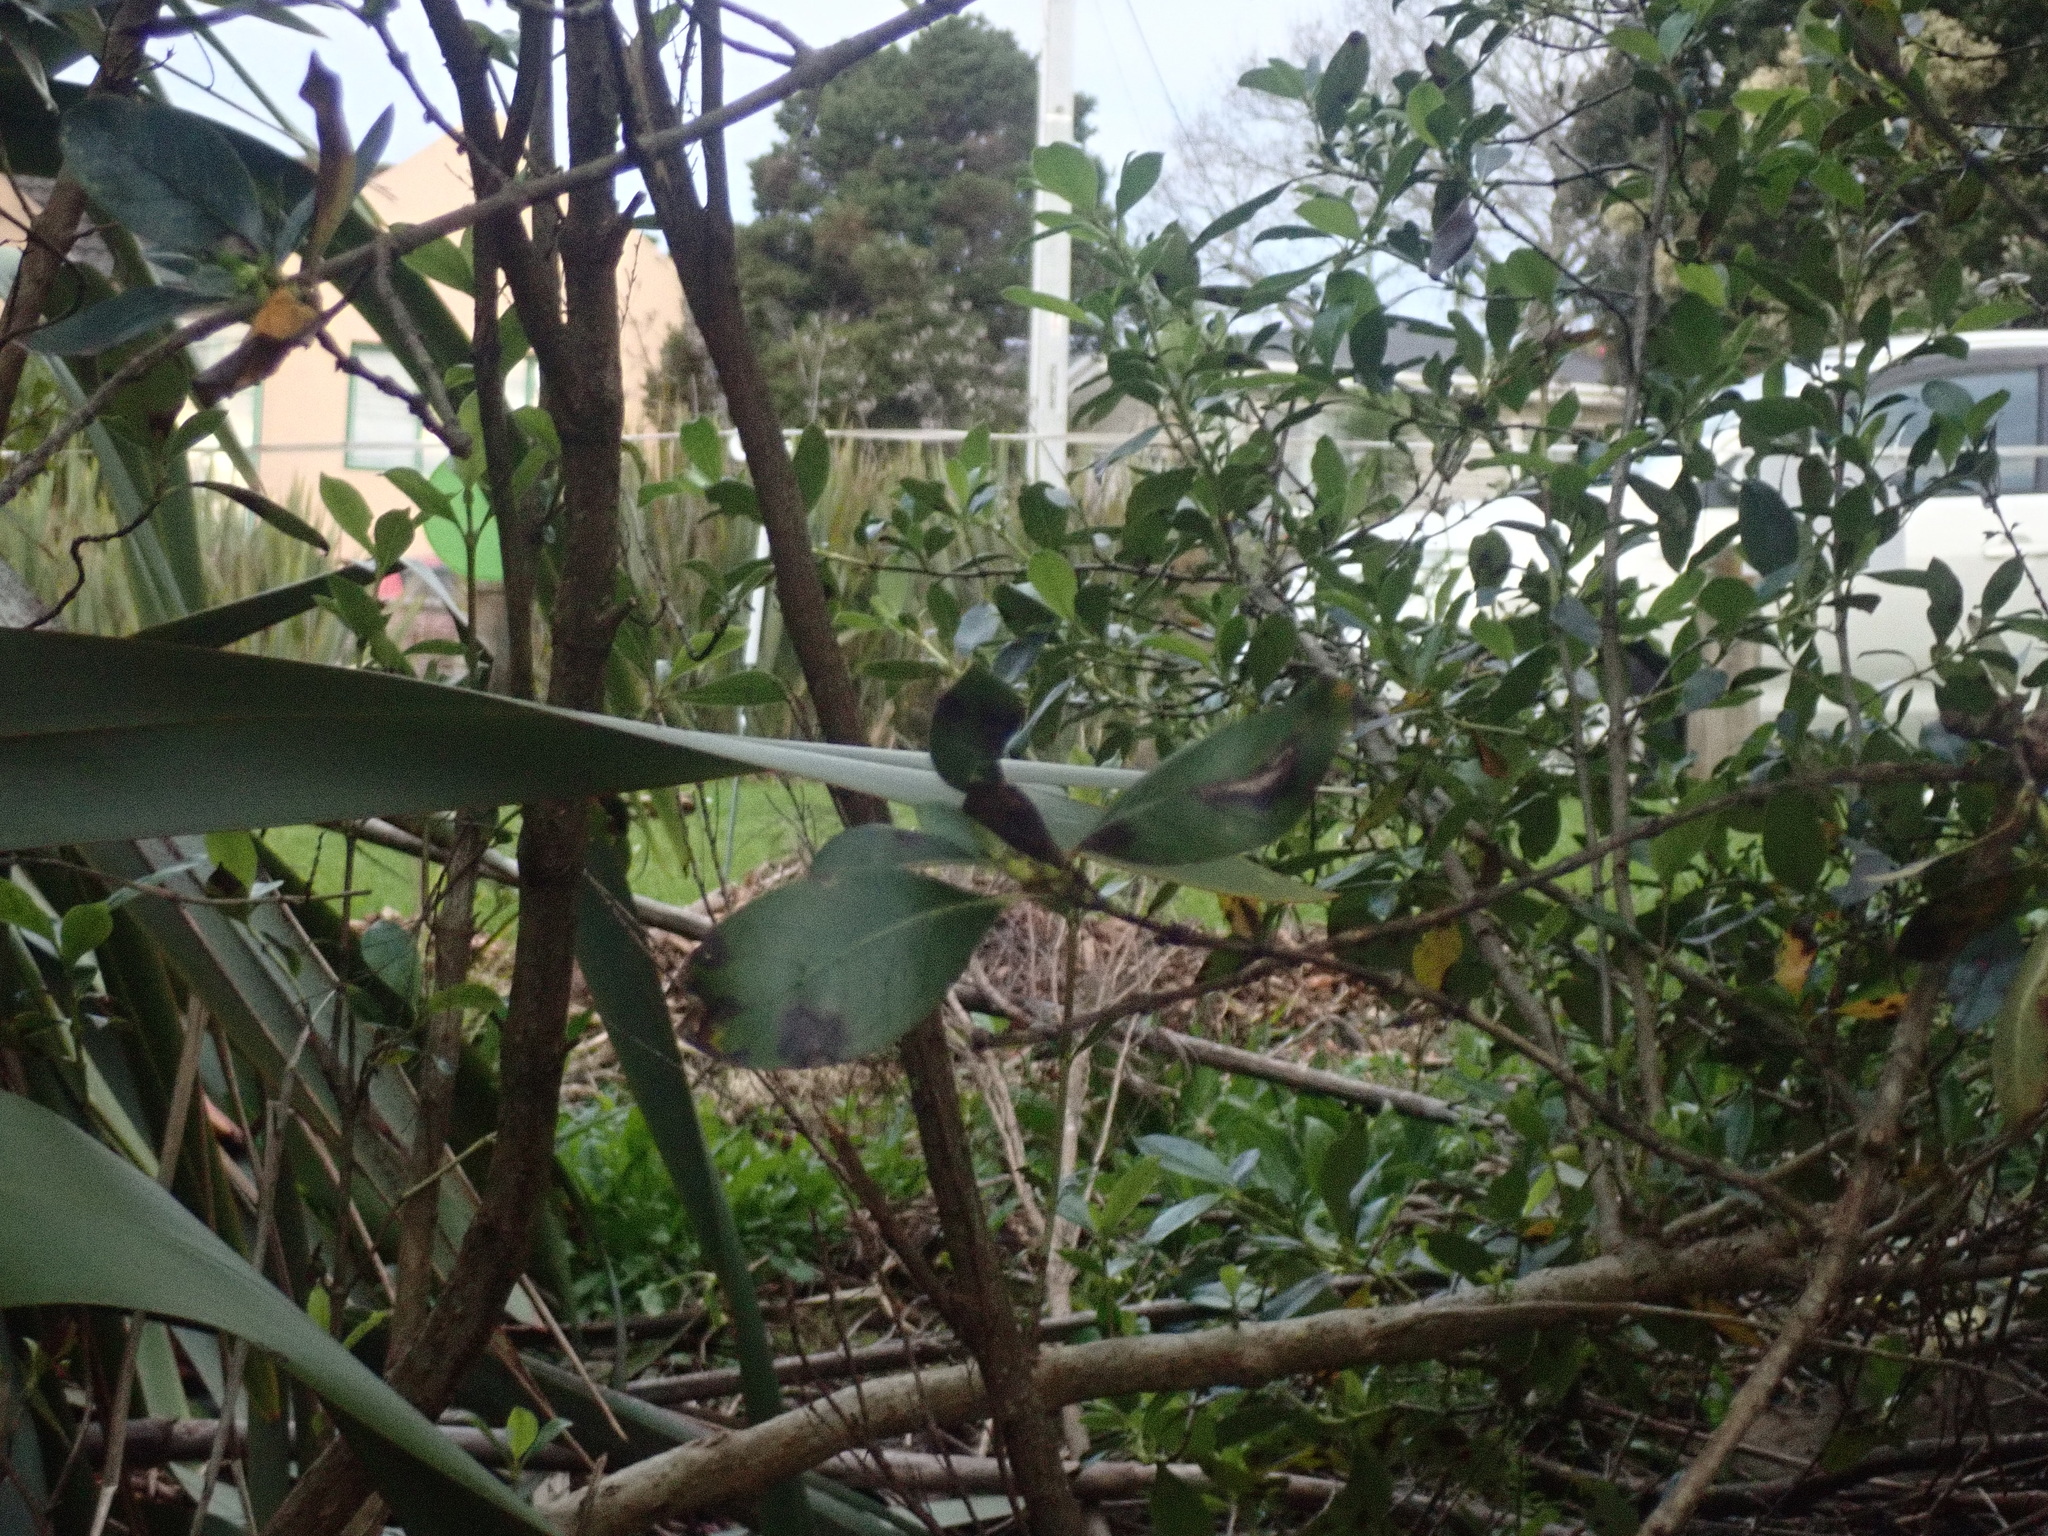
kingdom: Plantae
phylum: Tracheophyta
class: Magnoliopsida
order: Gentianales
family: Rubiaceae
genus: Coprosma
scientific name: Coprosma robusta
